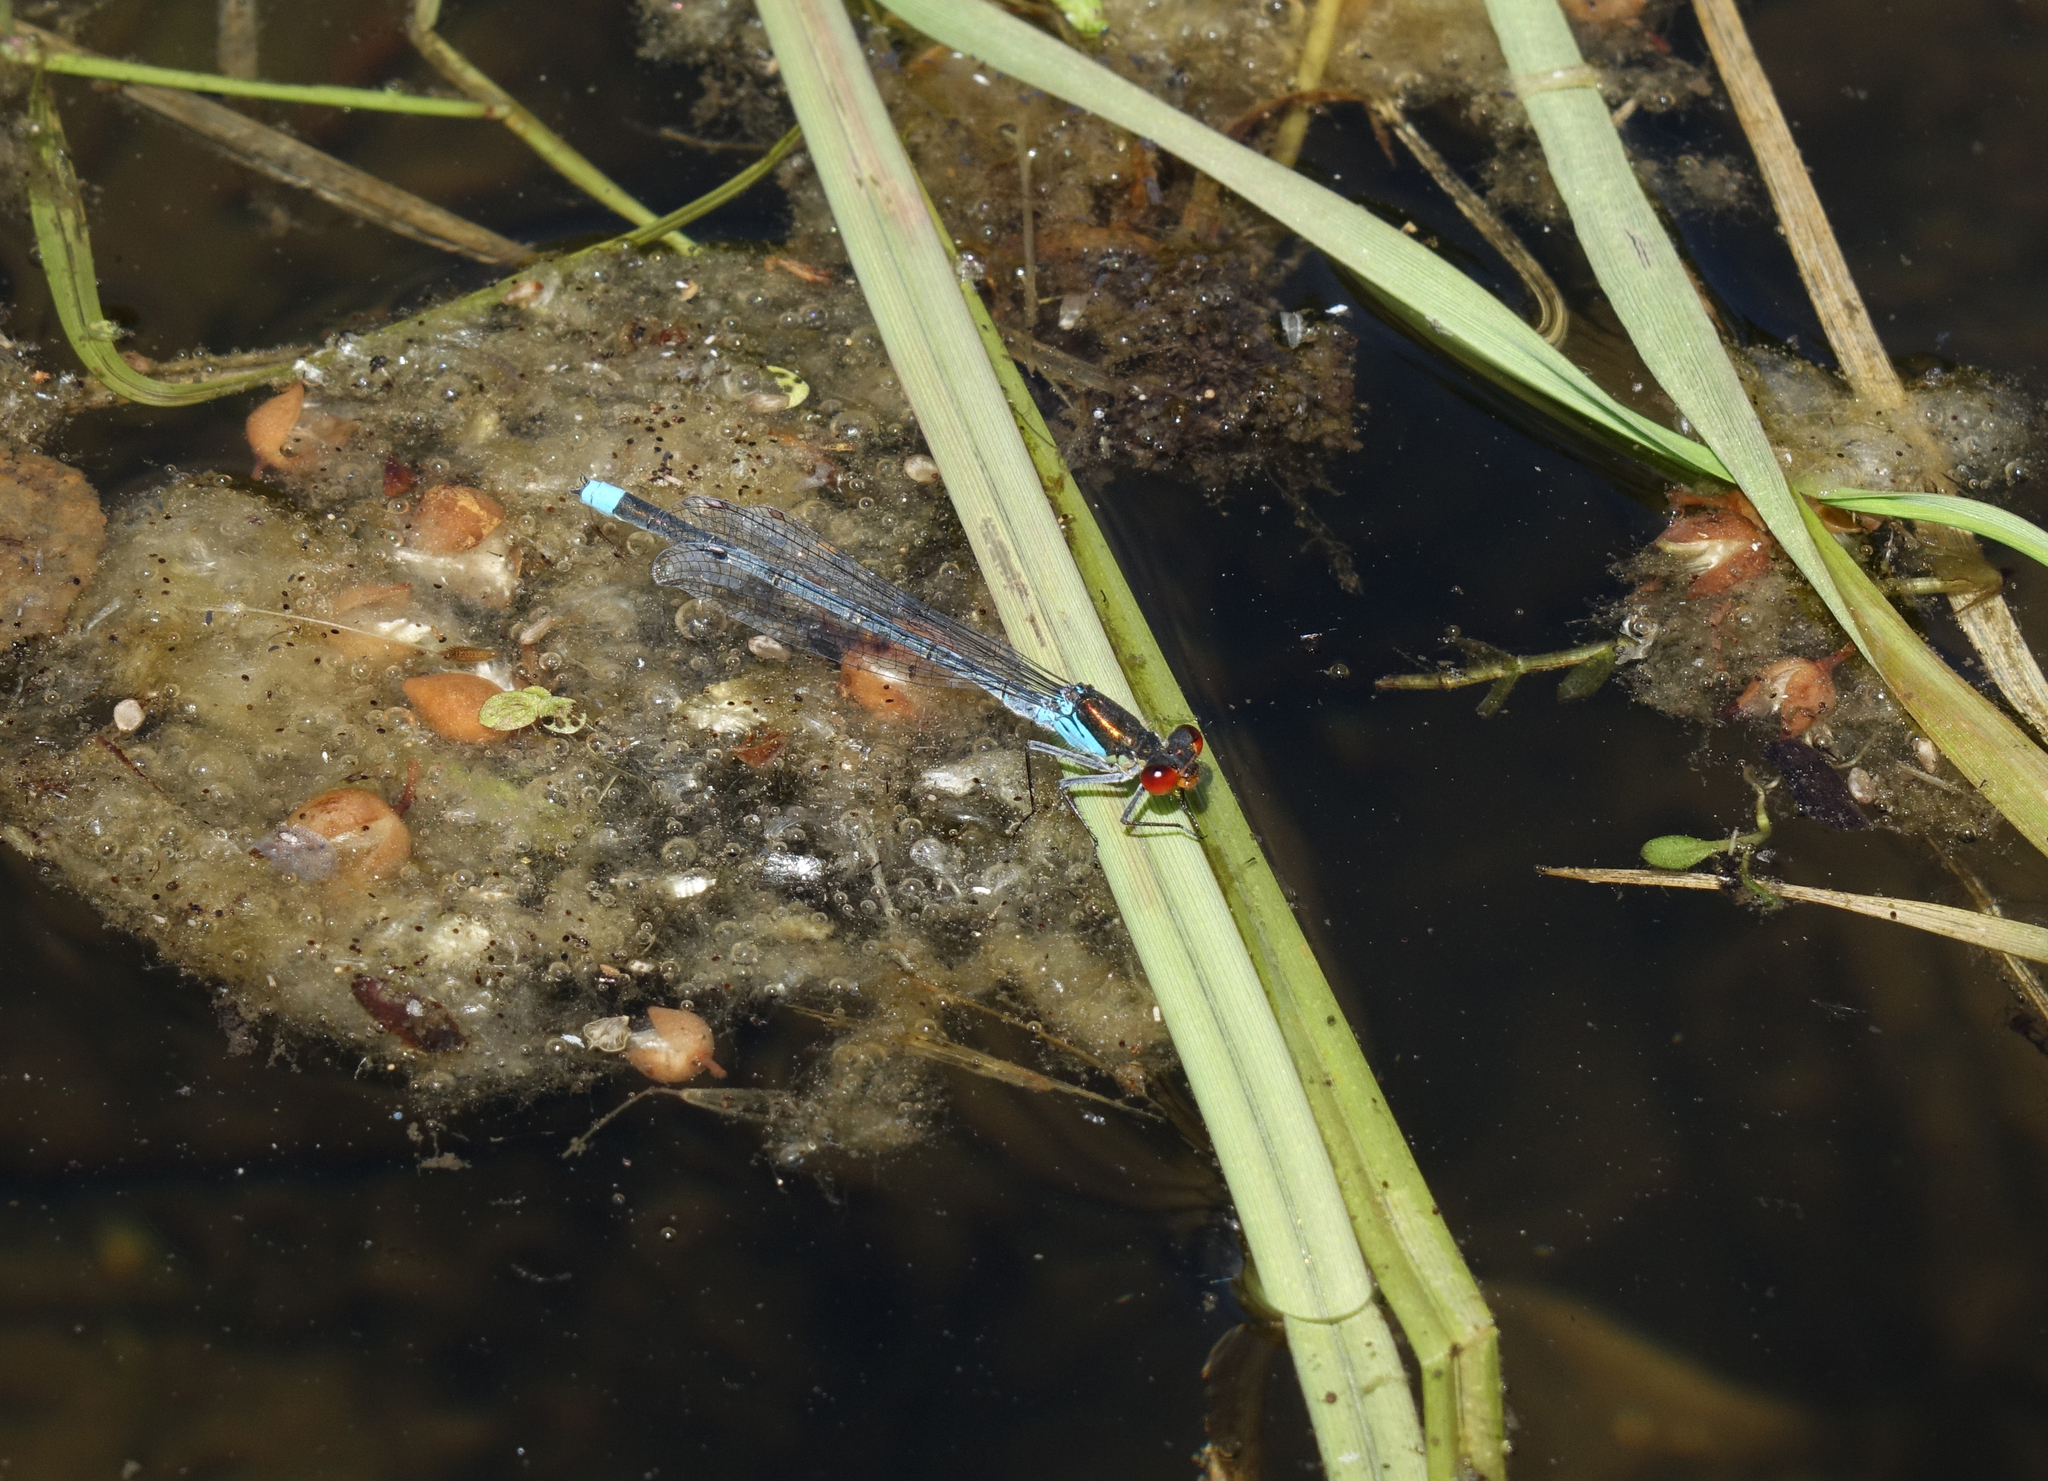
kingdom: Animalia
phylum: Arthropoda
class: Insecta
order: Odonata
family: Coenagrionidae
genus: Erythromma
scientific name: Erythromma najas
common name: Red-eyed damselfly
